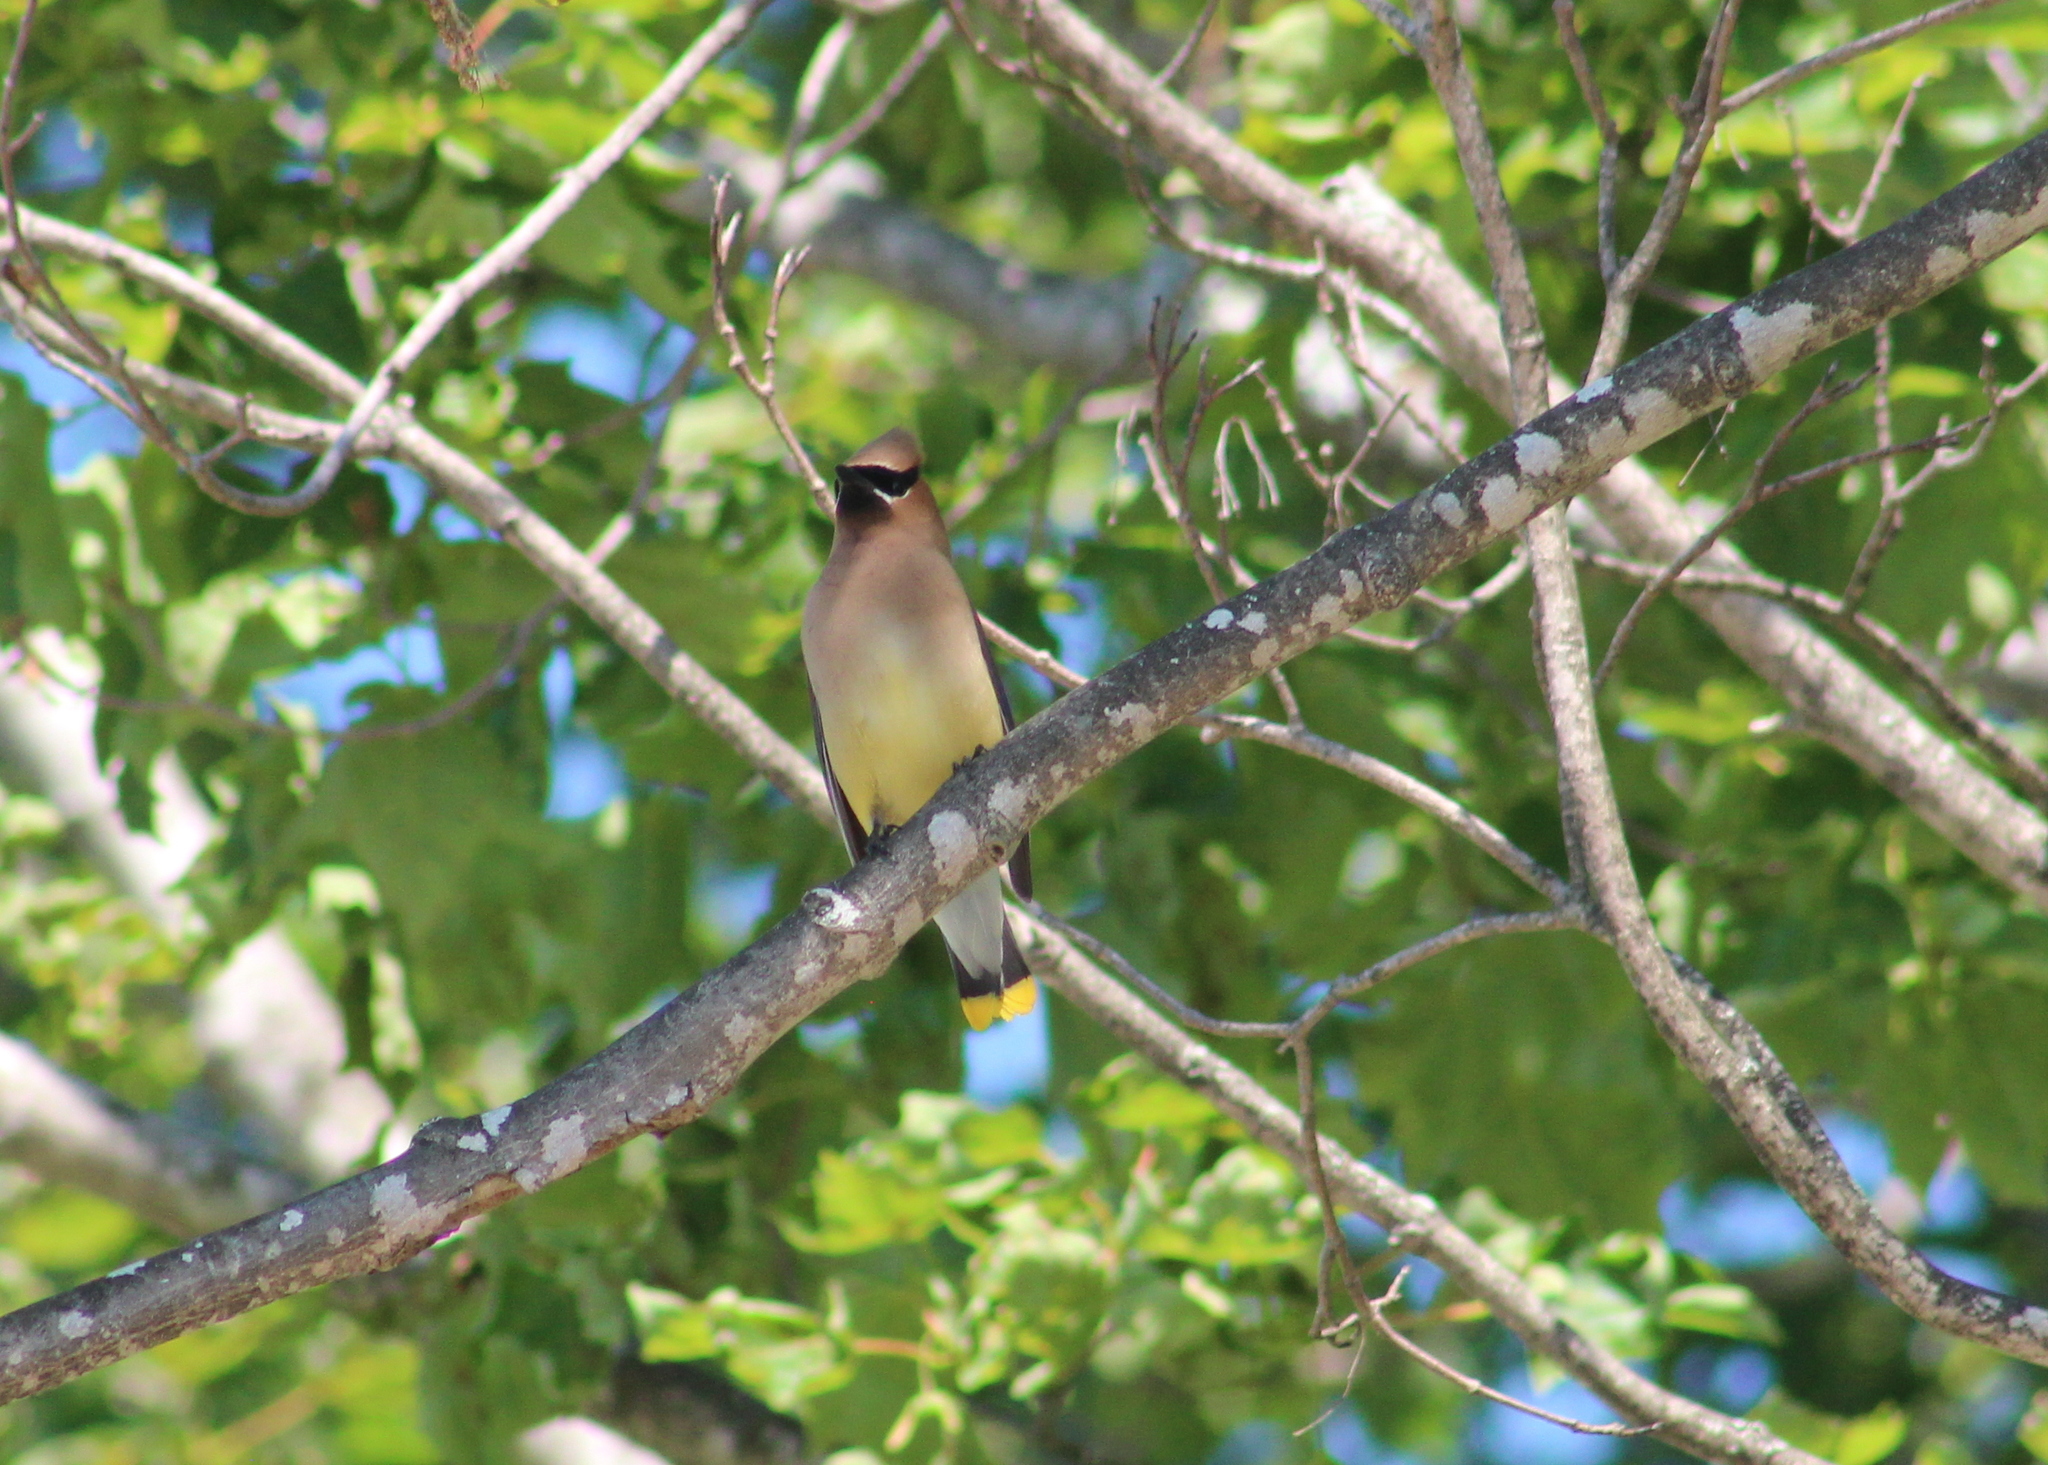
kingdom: Animalia
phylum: Chordata
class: Aves
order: Passeriformes
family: Bombycillidae
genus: Bombycilla
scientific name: Bombycilla cedrorum
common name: Cedar waxwing
